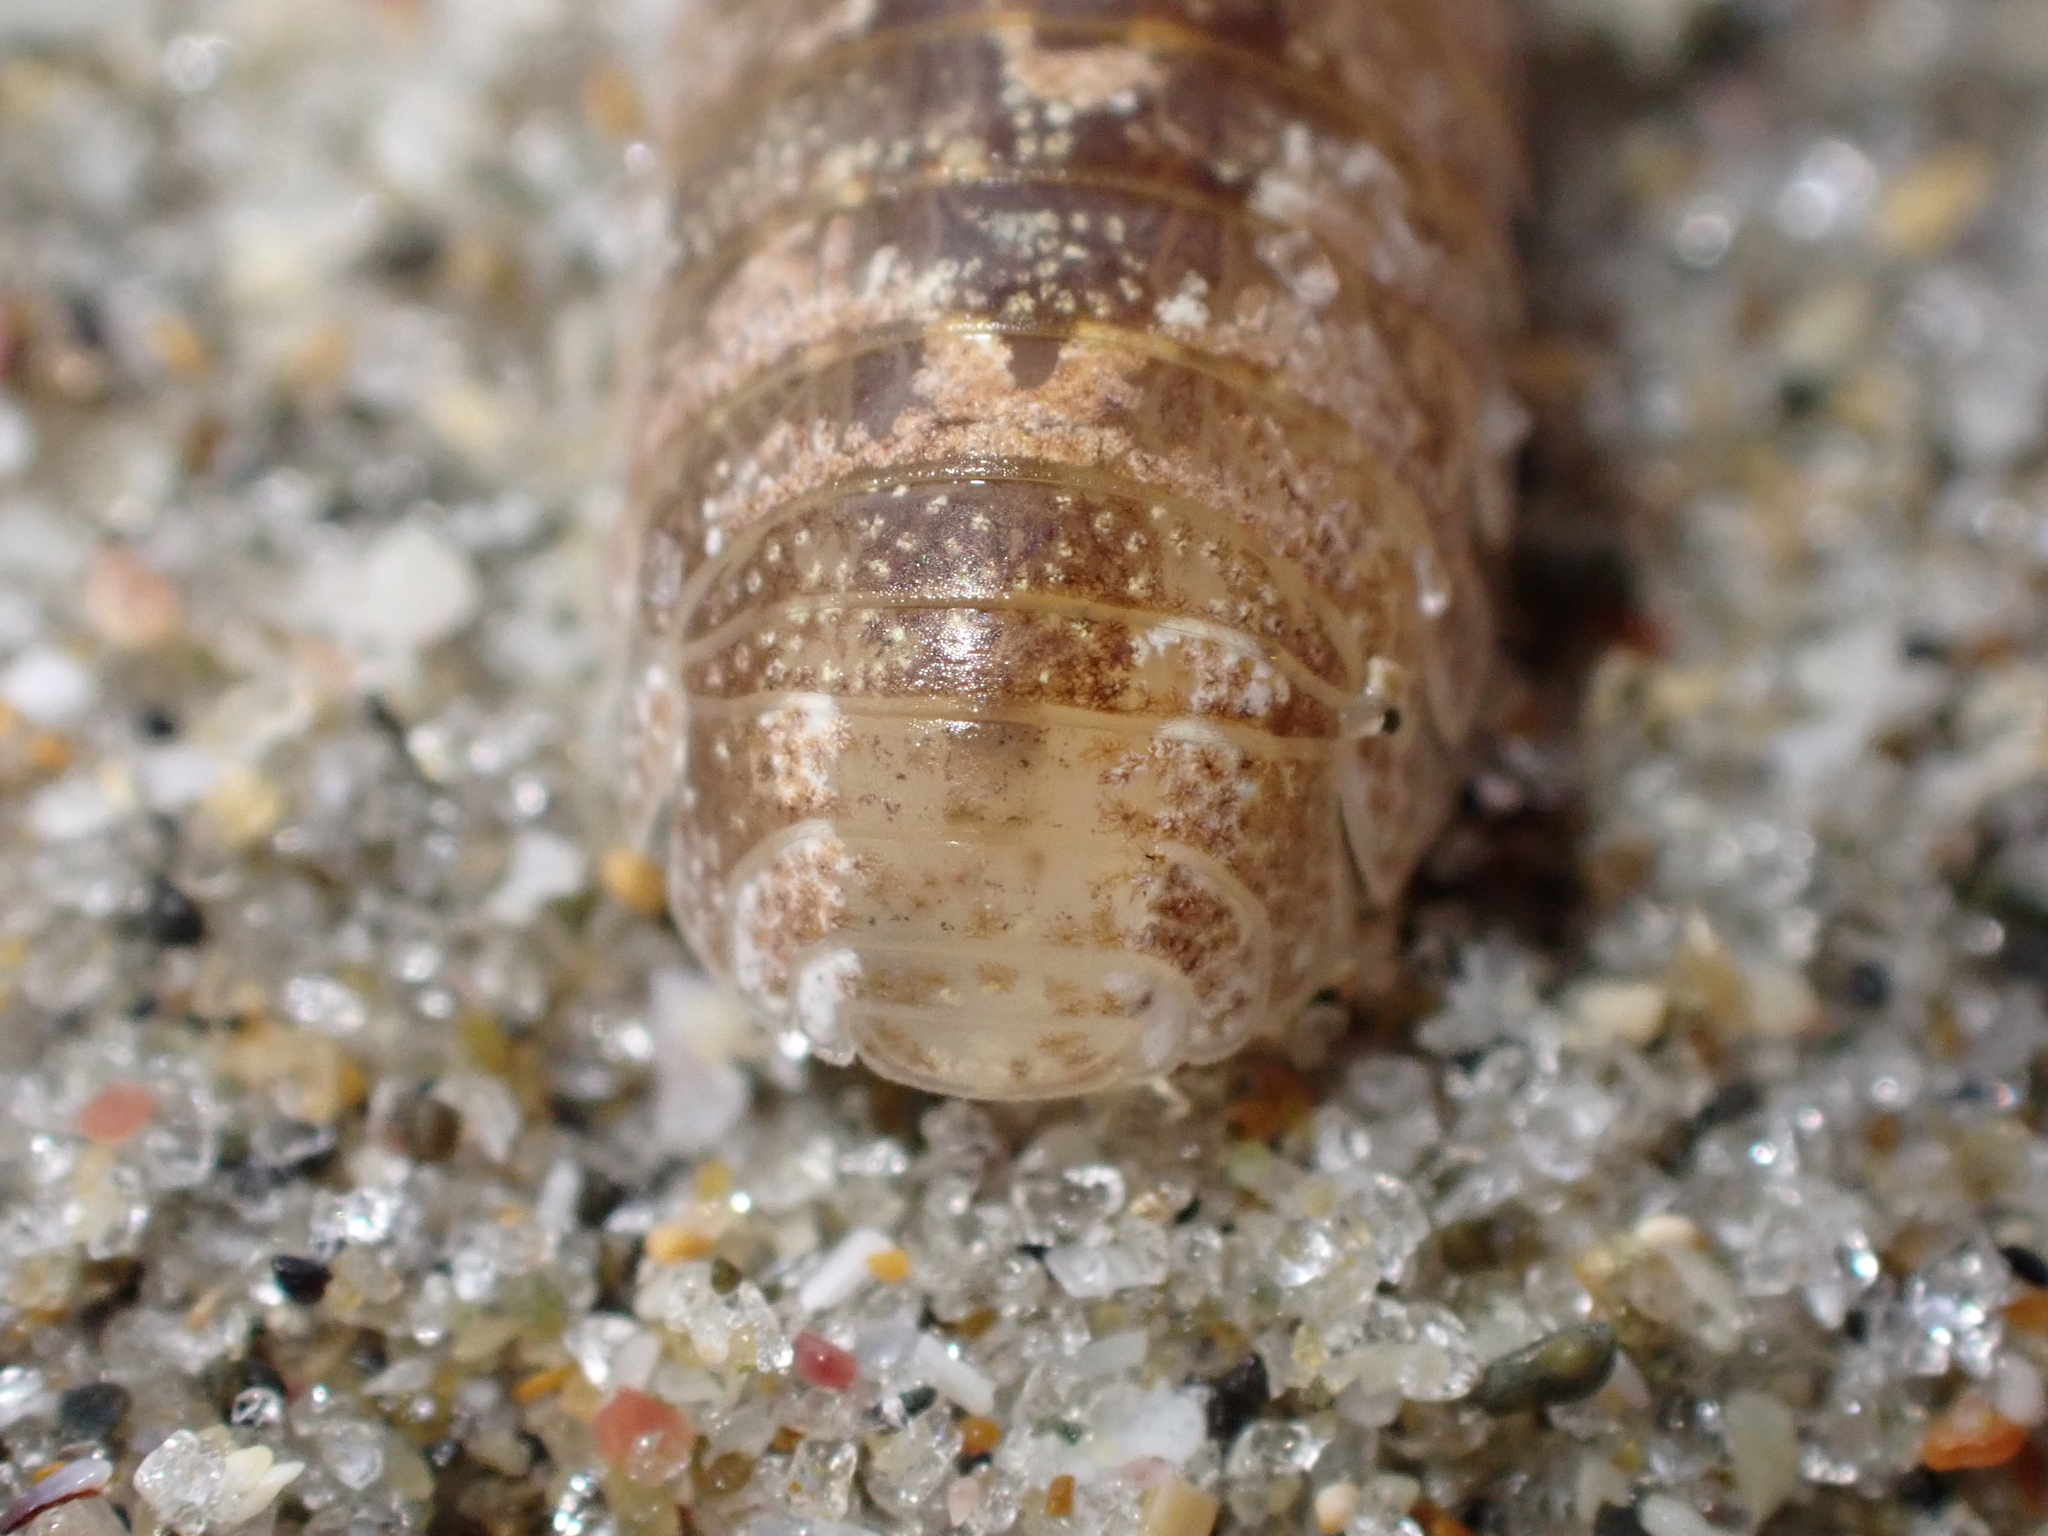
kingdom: Animalia
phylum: Arthropoda
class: Malacostraca
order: Isopoda
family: Tylidae
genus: Tylos
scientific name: Tylos neozelanicus
